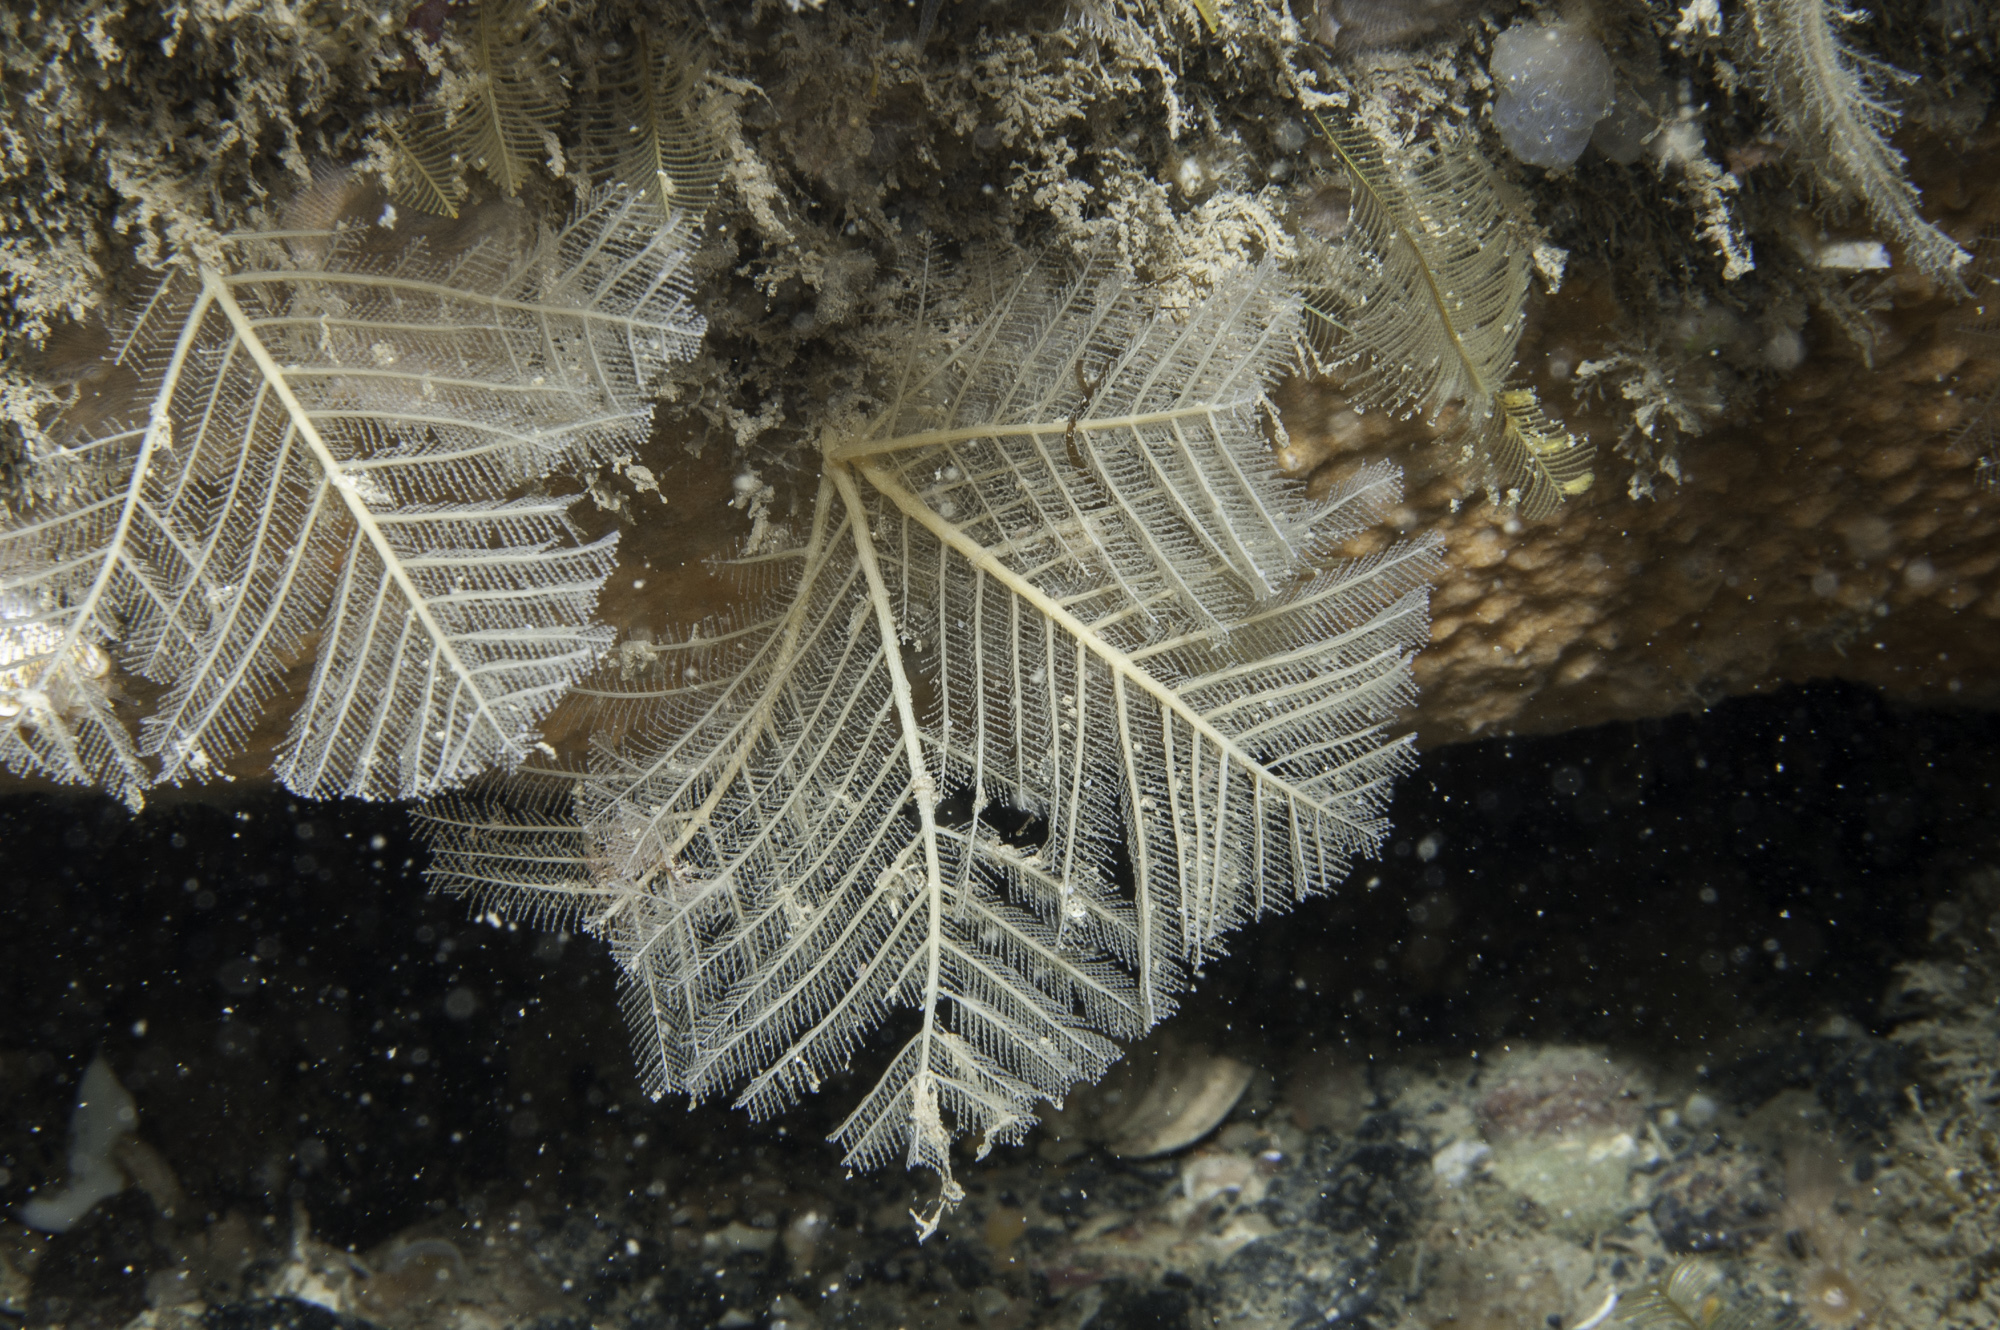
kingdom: Animalia
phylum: Cnidaria
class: Hydrozoa
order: Leptothecata
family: Halopterididae
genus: Polyplumaria
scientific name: Polyplumaria flabellata
